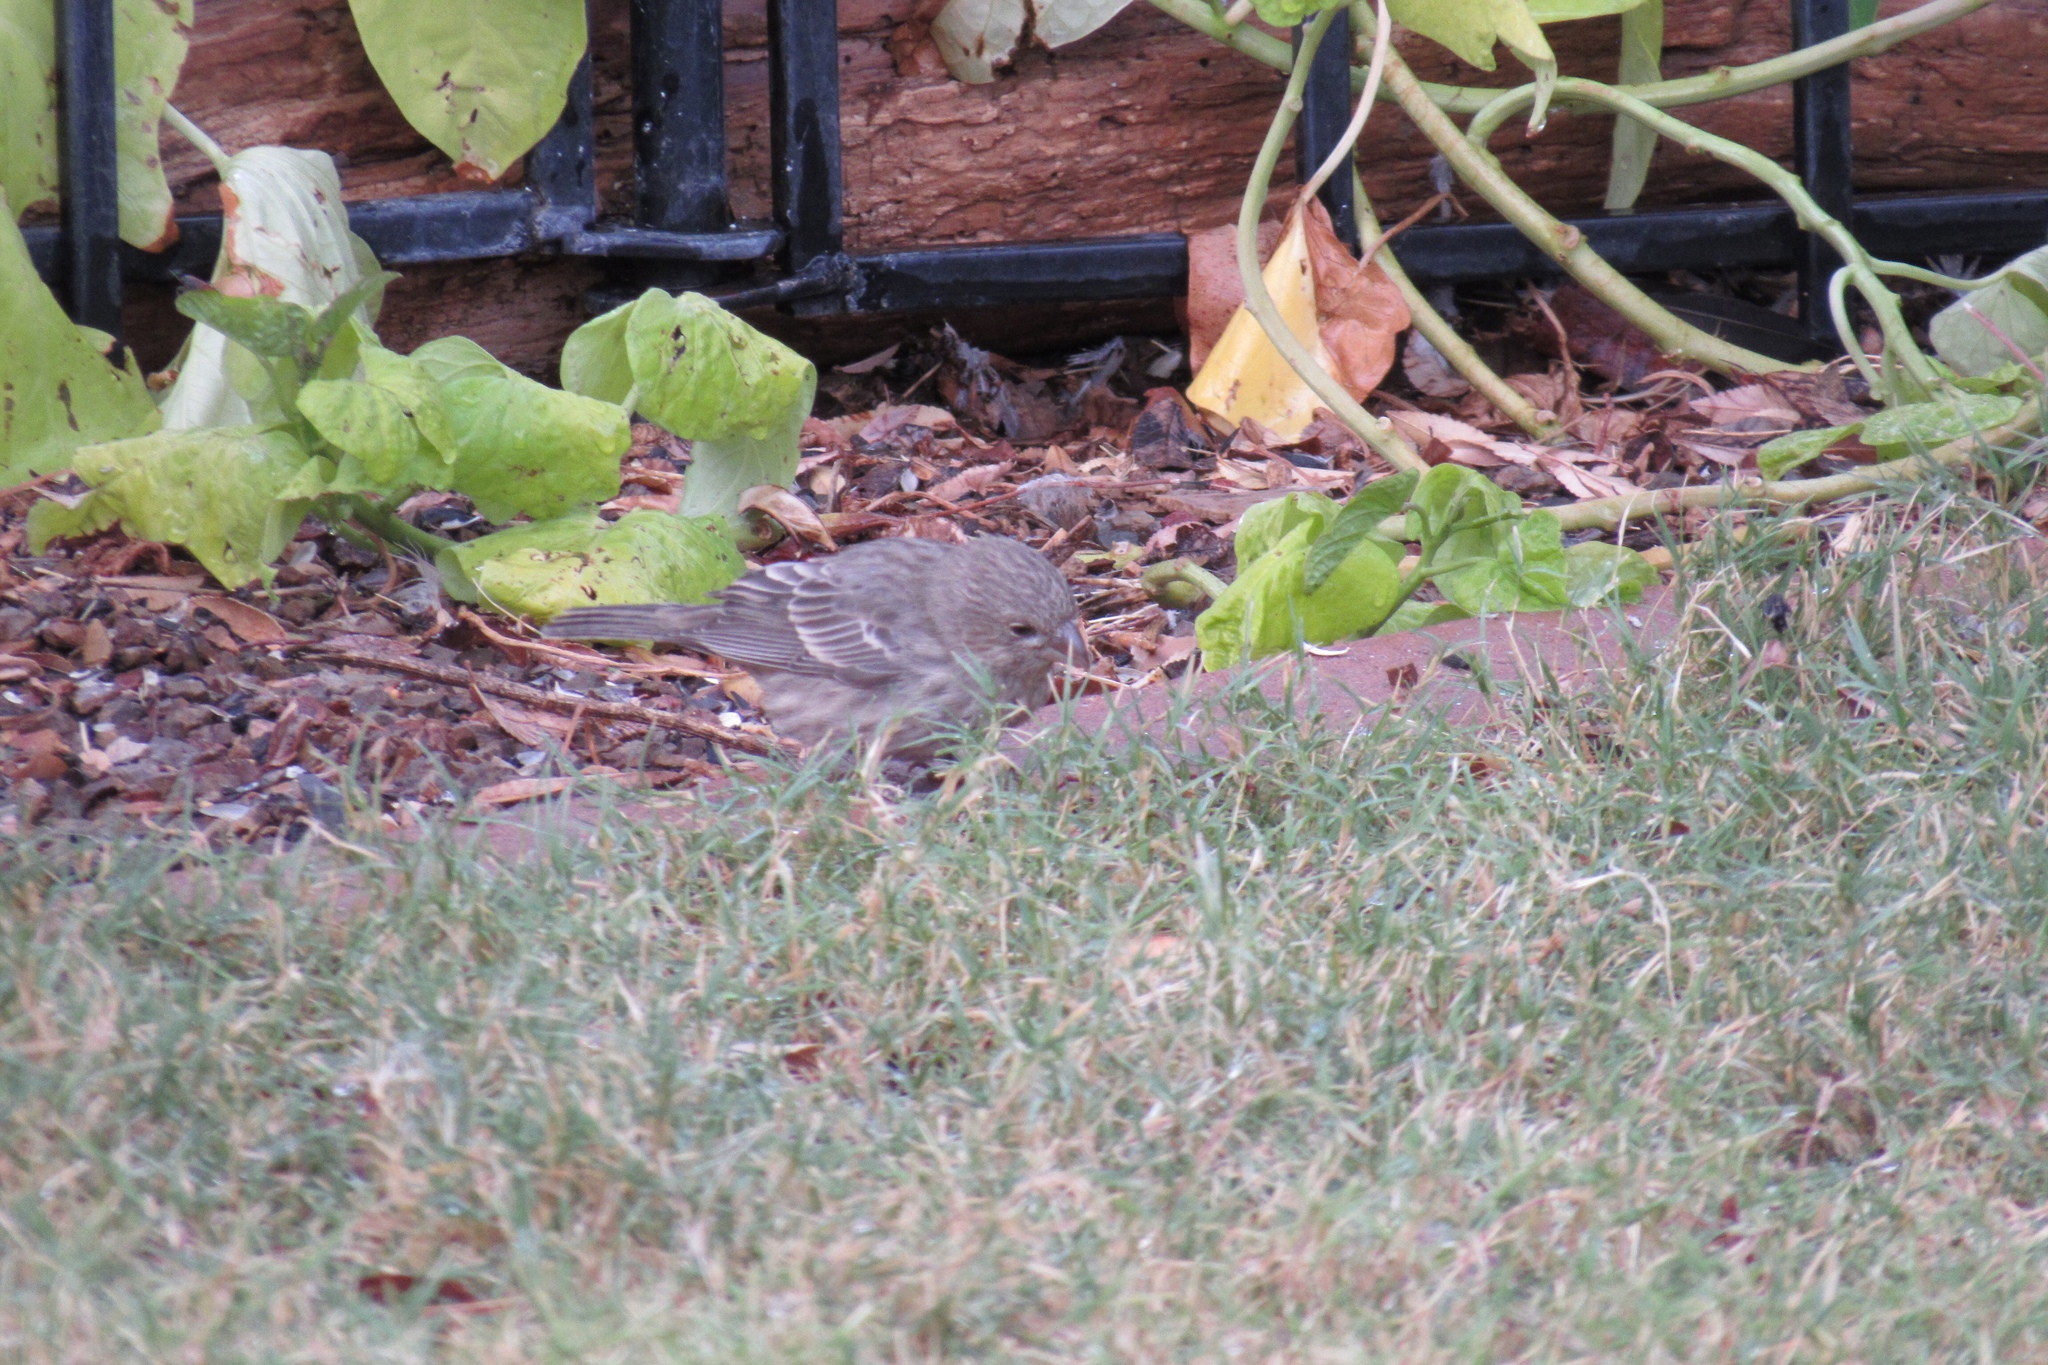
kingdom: Animalia
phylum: Chordata
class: Aves
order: Passeriformes
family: Fringillidae
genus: Haemorhous
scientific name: Haemorhous mexicanus
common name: House finch
